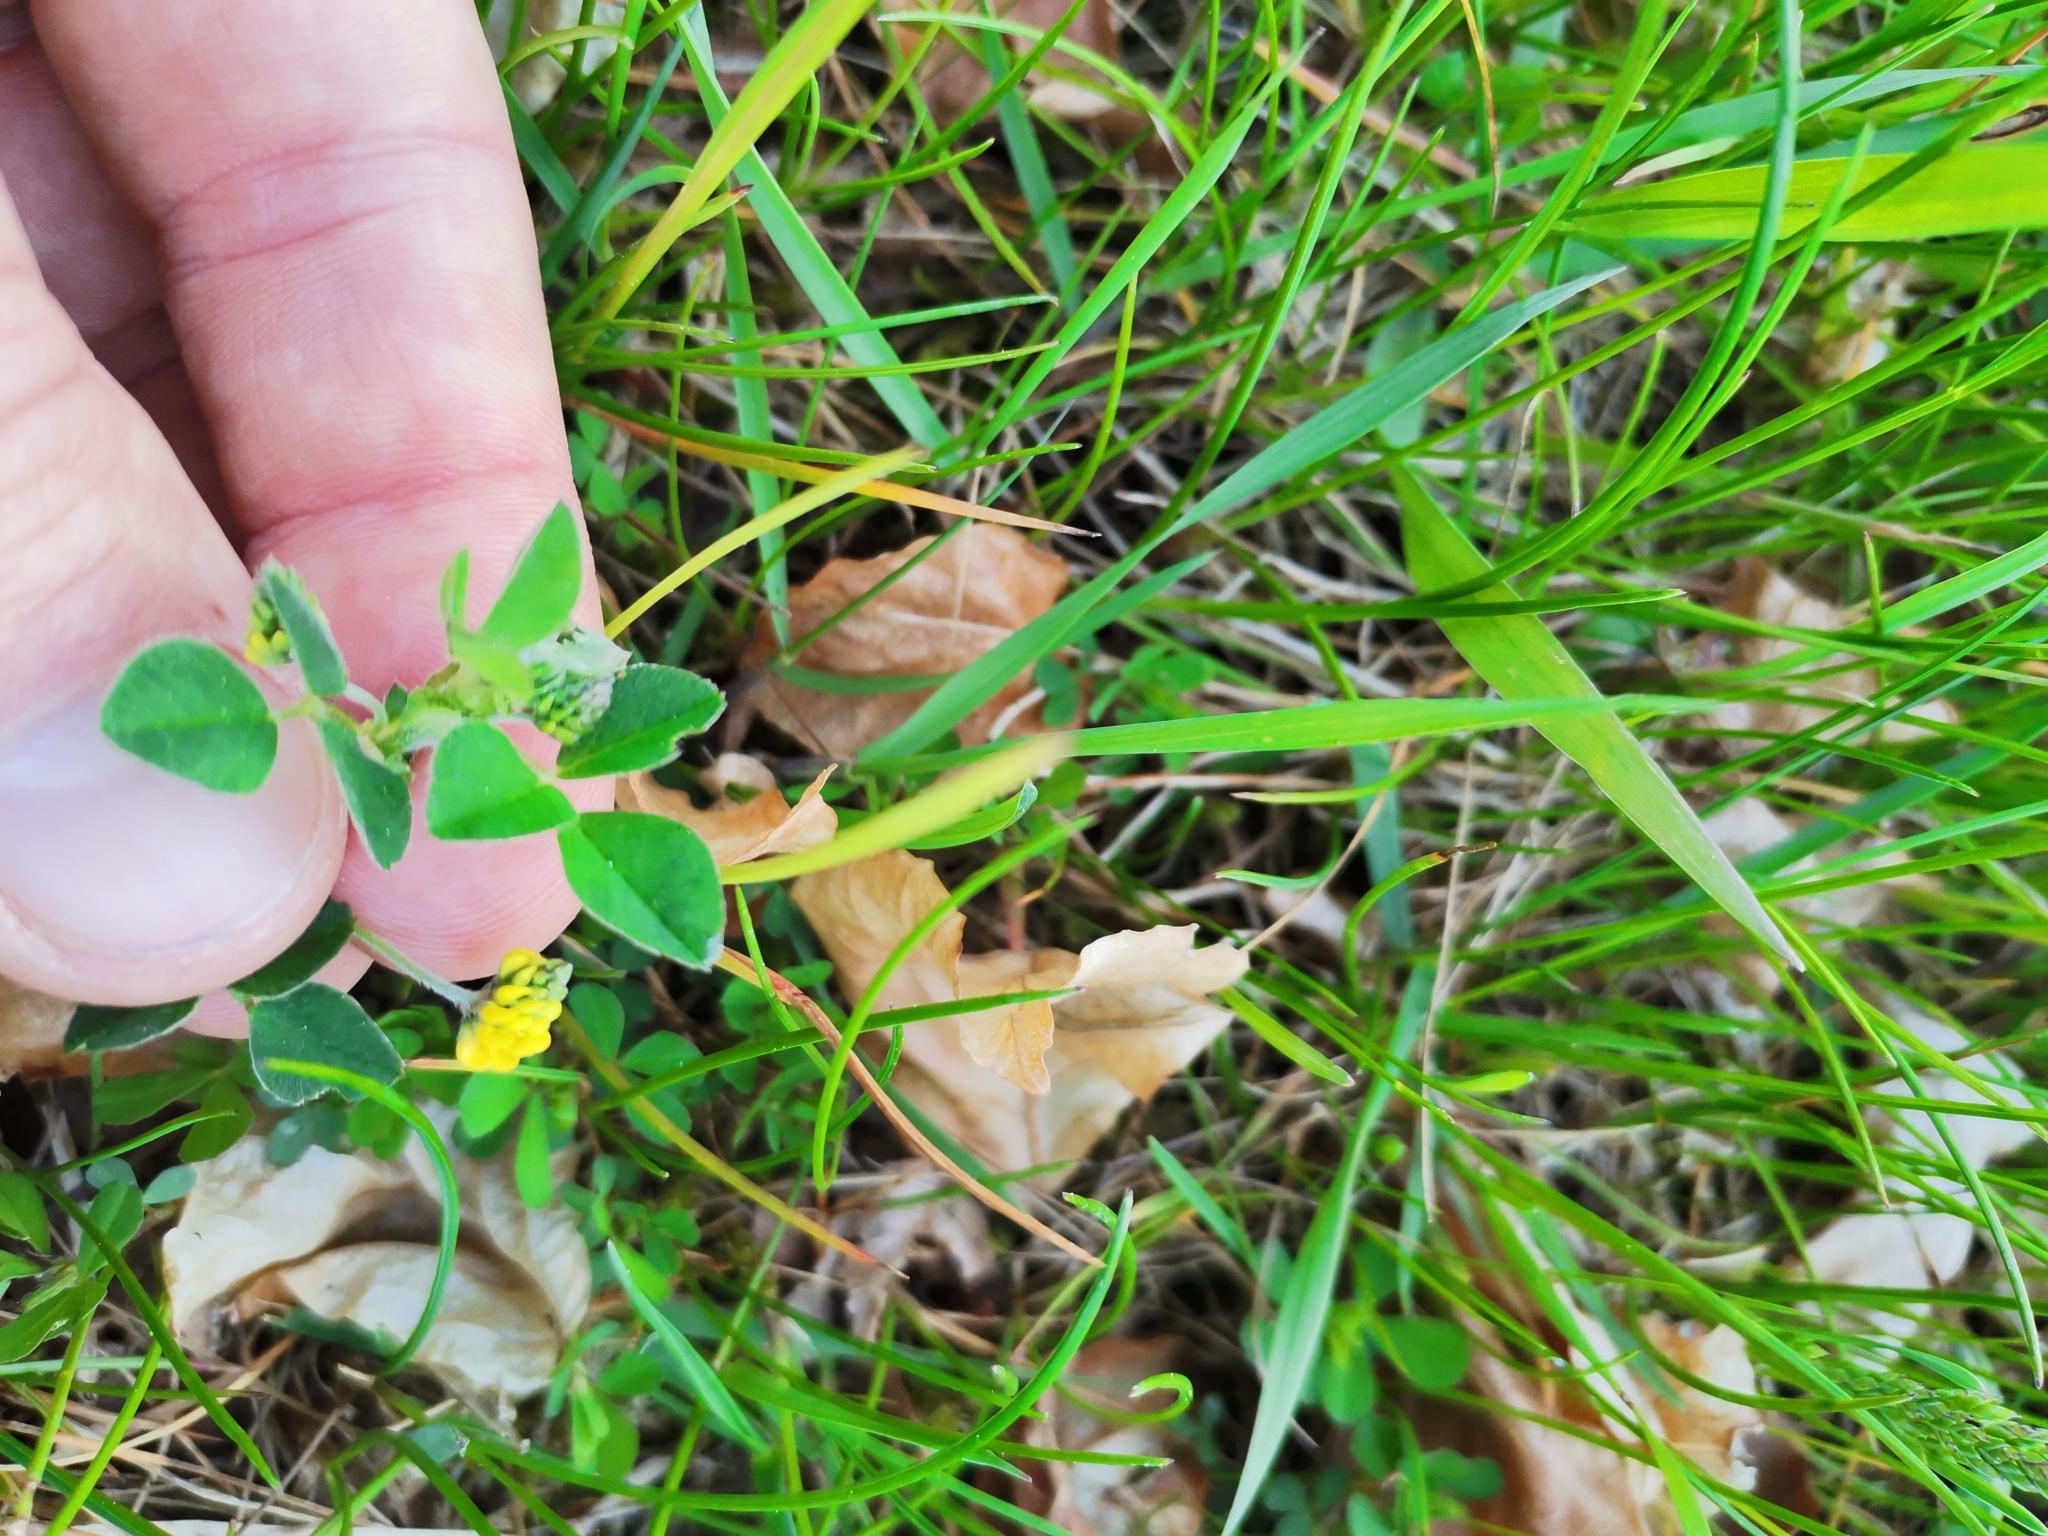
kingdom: Plantae
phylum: Tracheophyta
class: Magnoliopsida
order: Fabales
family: Fabaceae
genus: Medicago
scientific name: Medicago lupulina
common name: Black medick
